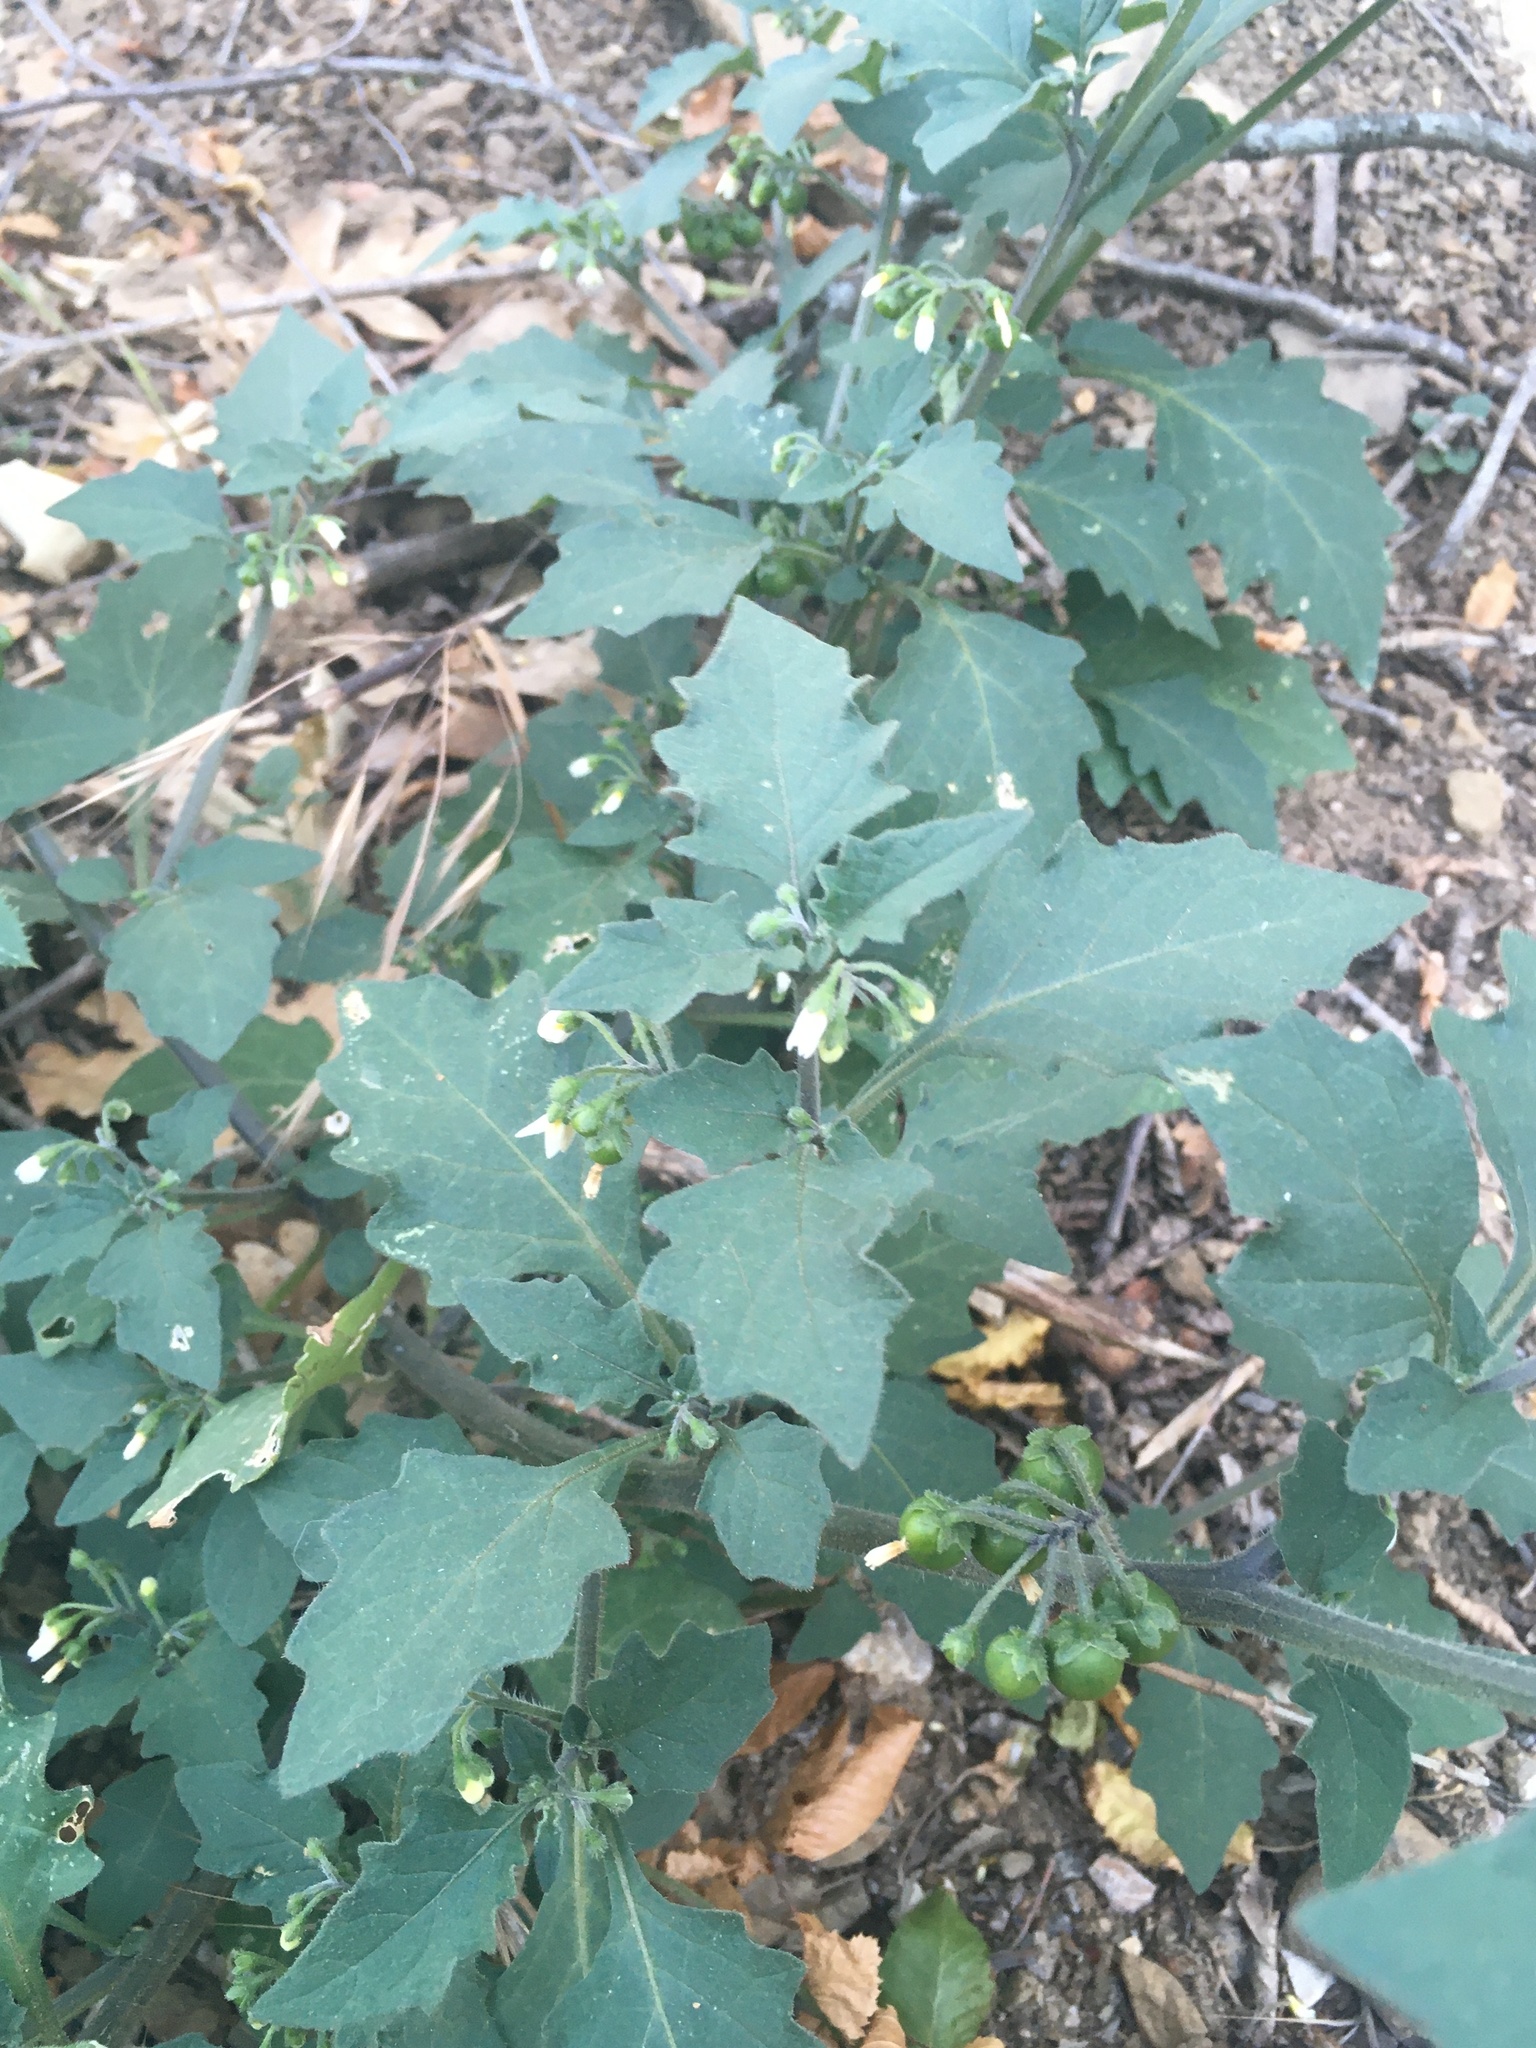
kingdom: Plantae
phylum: Tracheophyta
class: Magnoliopsida
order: Solanales
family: Solanaceae
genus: Solanum
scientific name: Solanum nigrum
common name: Black nightshade
